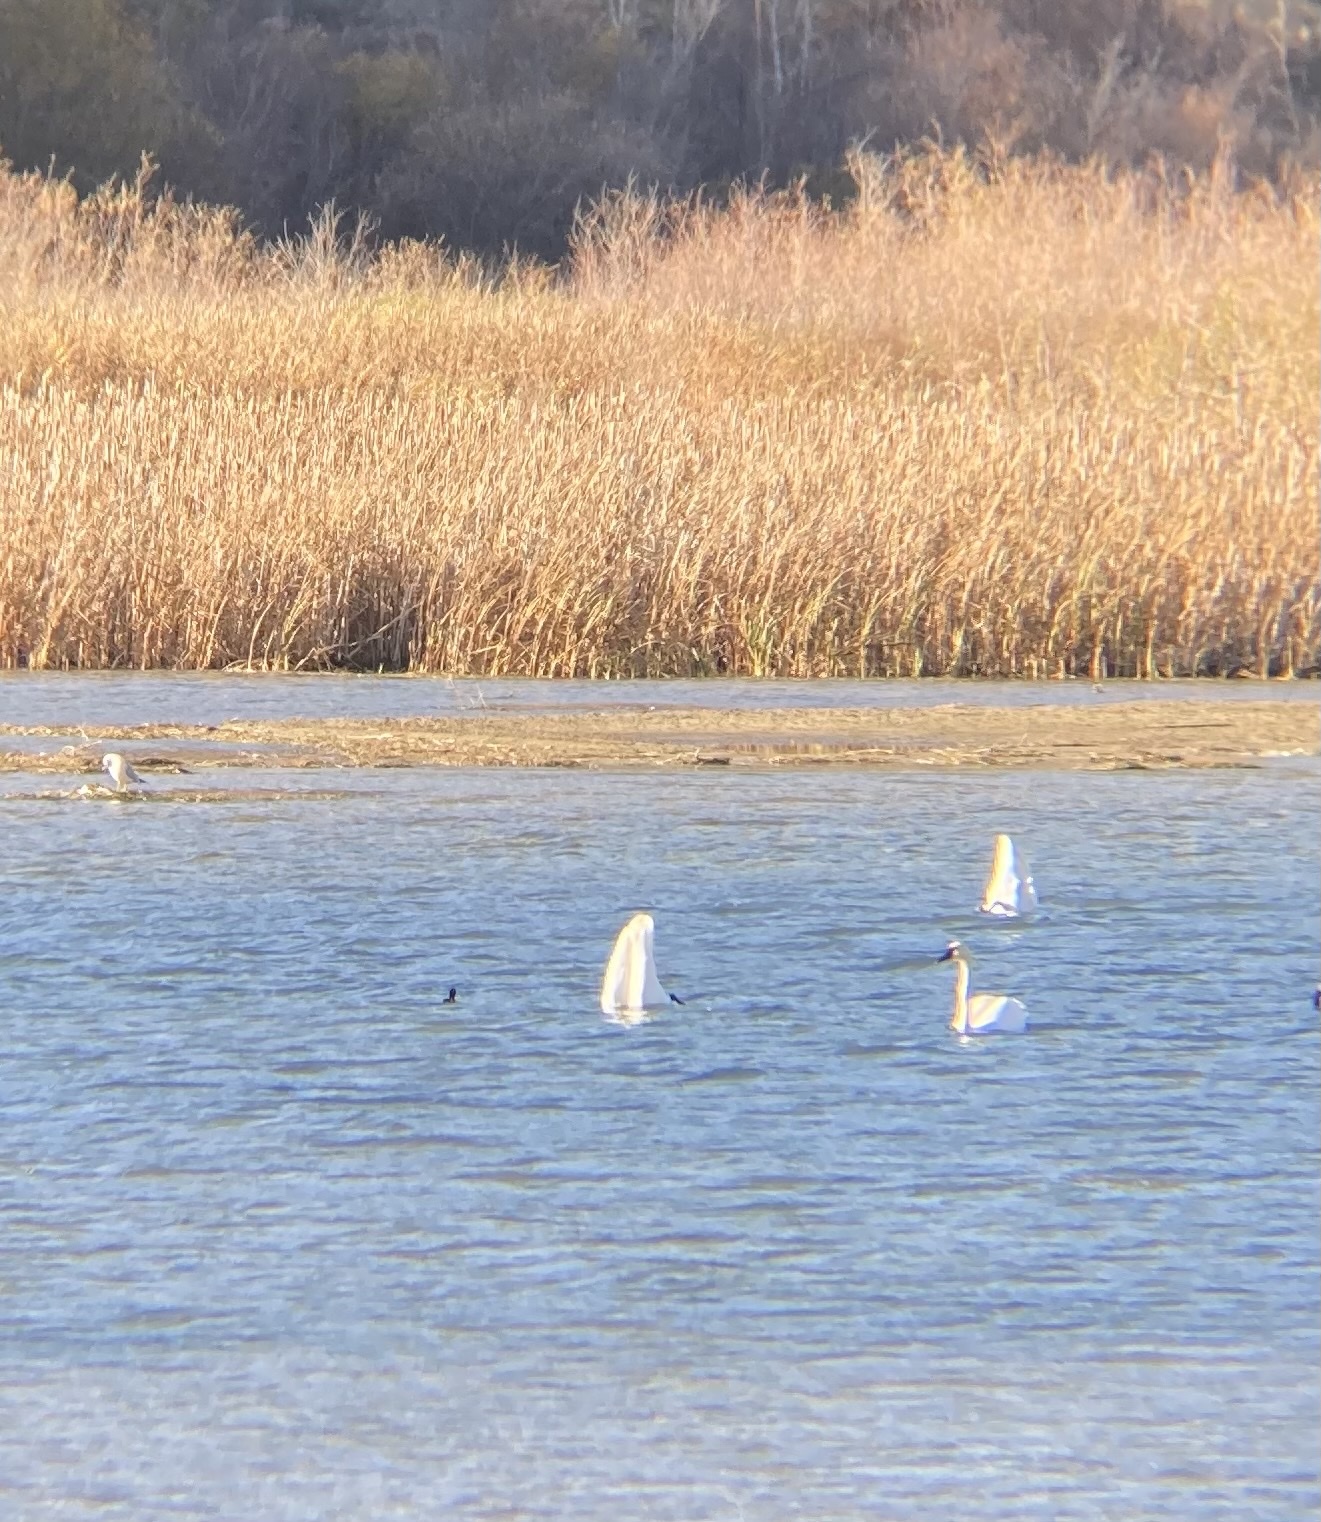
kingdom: Animalia
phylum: Chordata
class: Aves
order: Anseriformes
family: Anatidae
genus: Cygnus
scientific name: Cygnus buccinator
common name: Trumpeter swan
